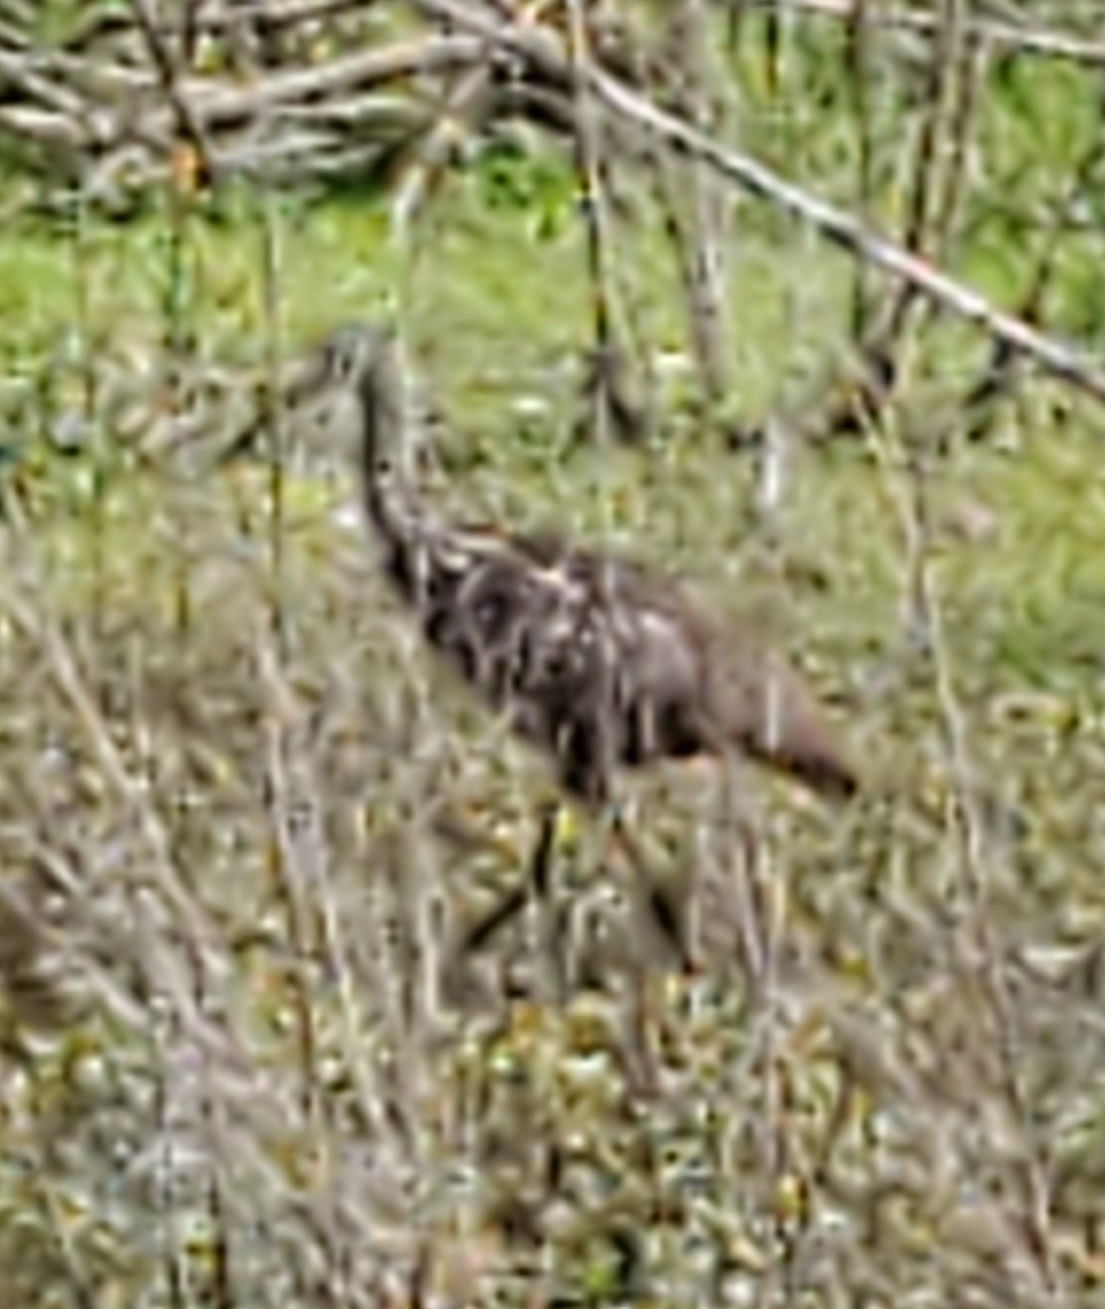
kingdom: Animalia
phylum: Chordata
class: Aves
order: Gruiformes
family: Aramidae
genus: Aramus
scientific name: Aramus guarauna
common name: Limpkin
